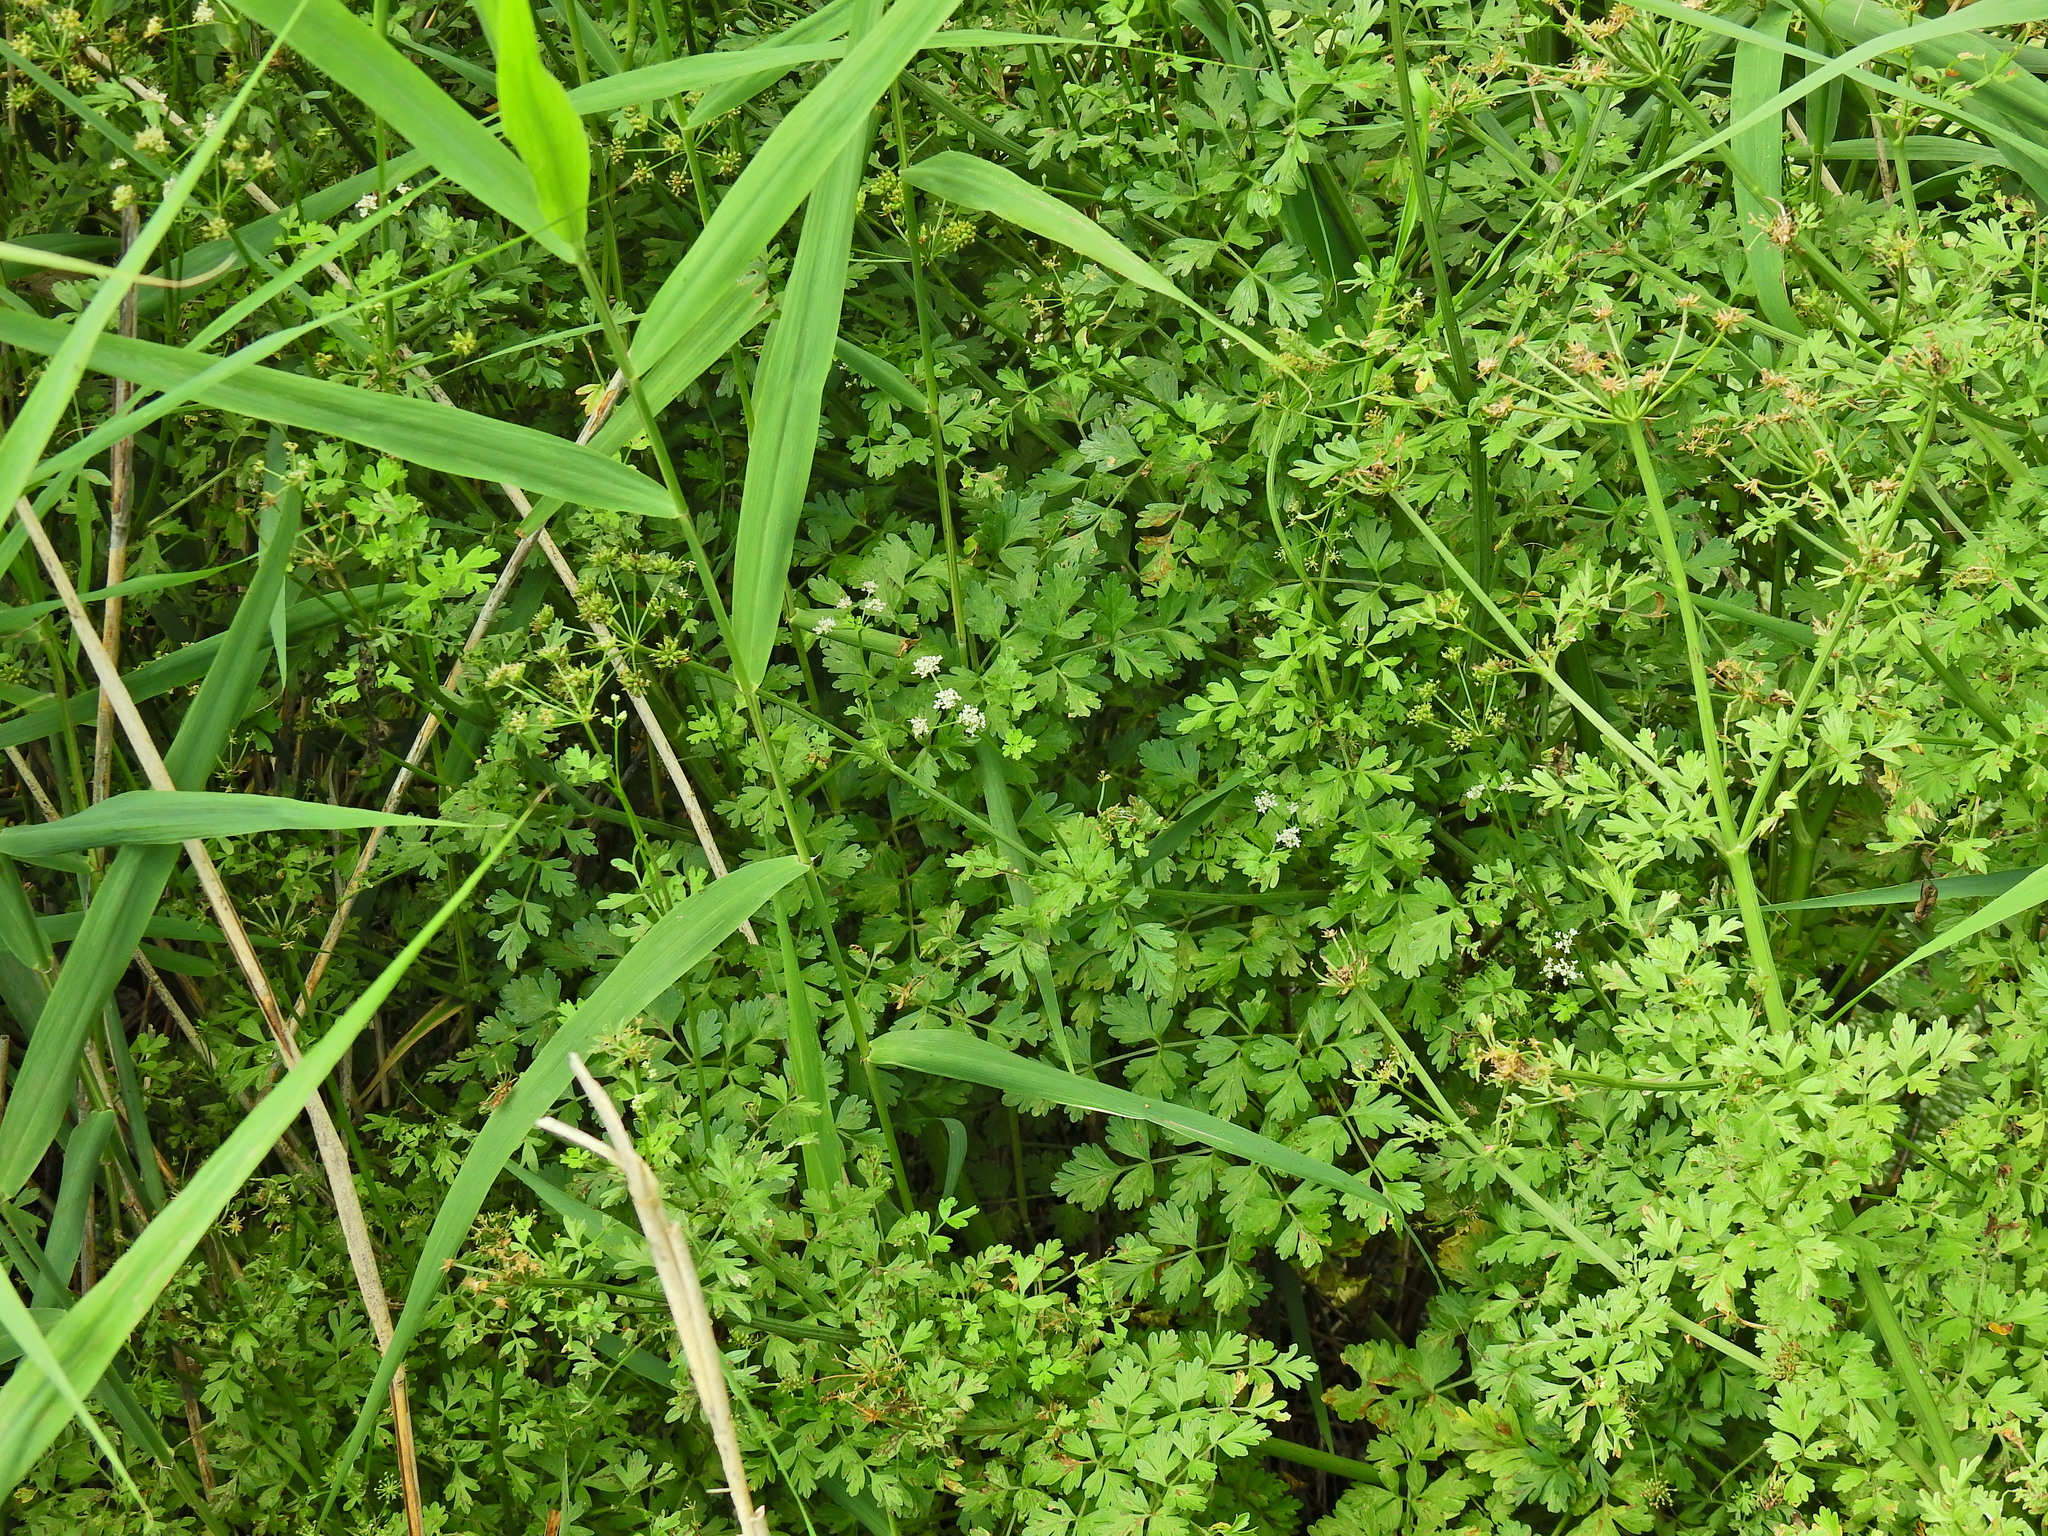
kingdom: Plantae
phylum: Tracheophyta
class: Magnoliopsida
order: Apiales
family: Apiaceae
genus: Oenanthe
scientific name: Oenanthe crocata
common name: Hemlock water-dropwort
